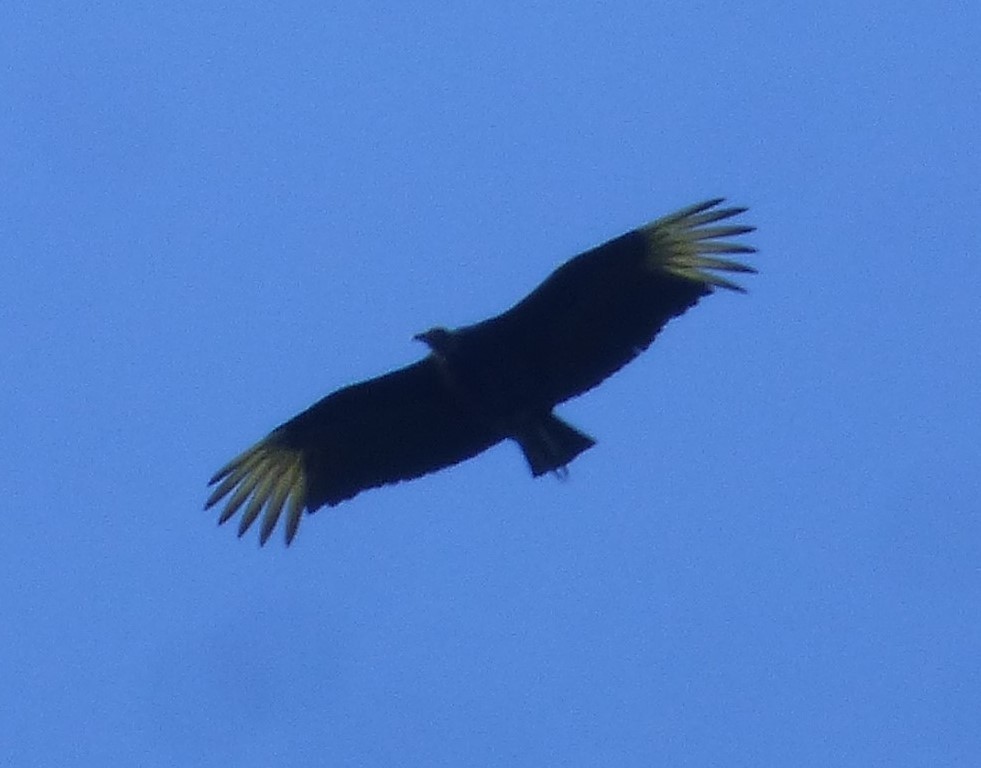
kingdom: Animalia
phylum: Chordata
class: Aves
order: Accipitriformes
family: Cathartidae
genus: Coragyps
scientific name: Coragyps atratus
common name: Black vulture
